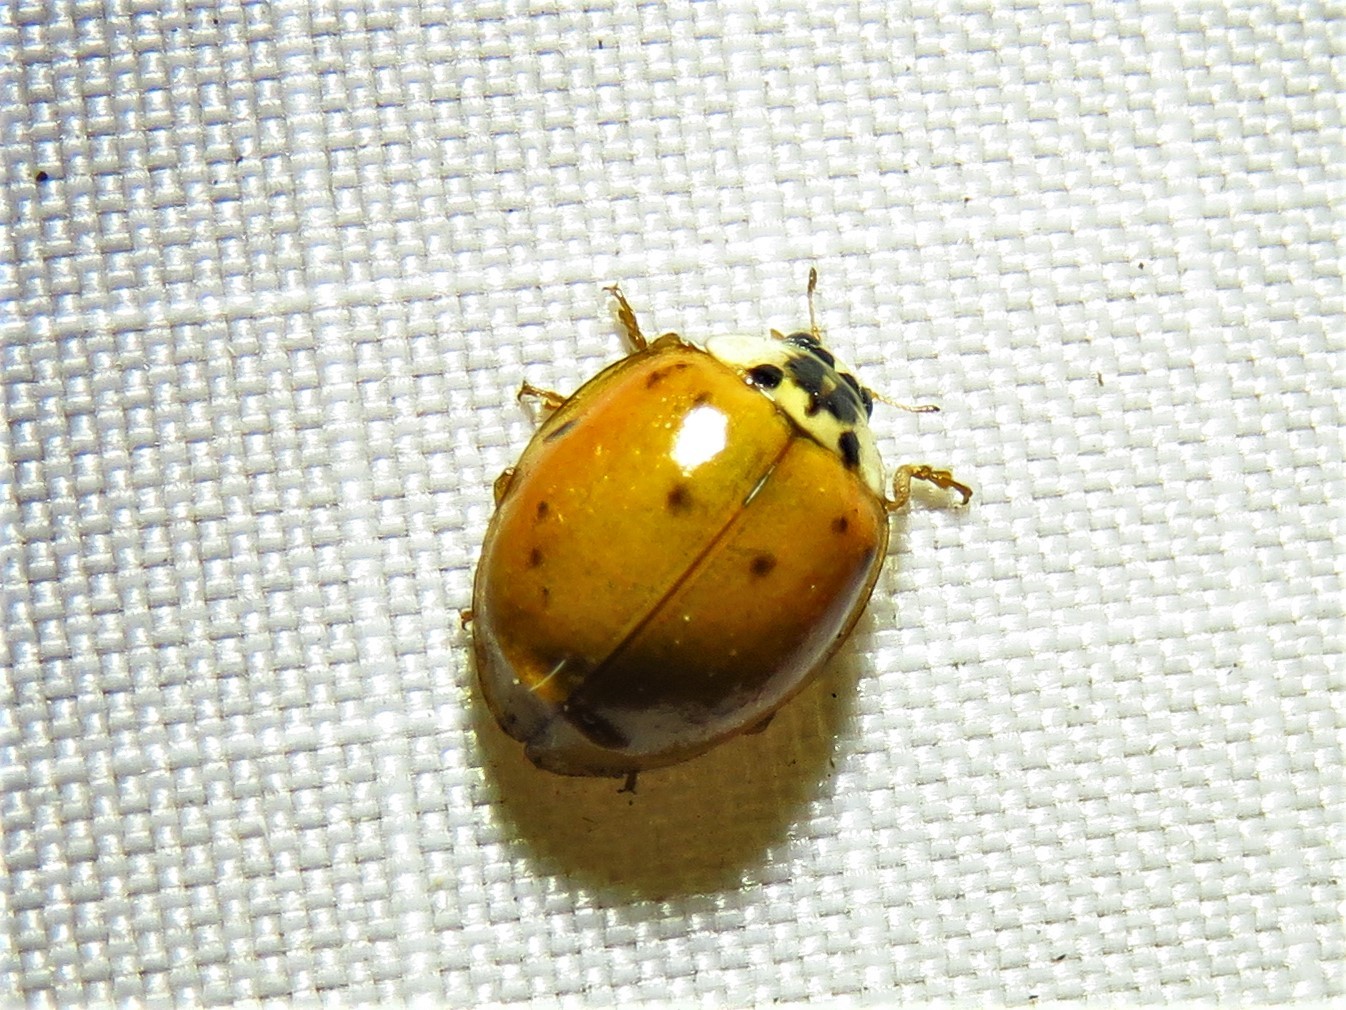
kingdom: Animalia
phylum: Arthropoda
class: Insecta
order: Coleoptera
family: Coccinellidae
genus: Harmonia
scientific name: Harmonia axyridis
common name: Harlequin ladybird
